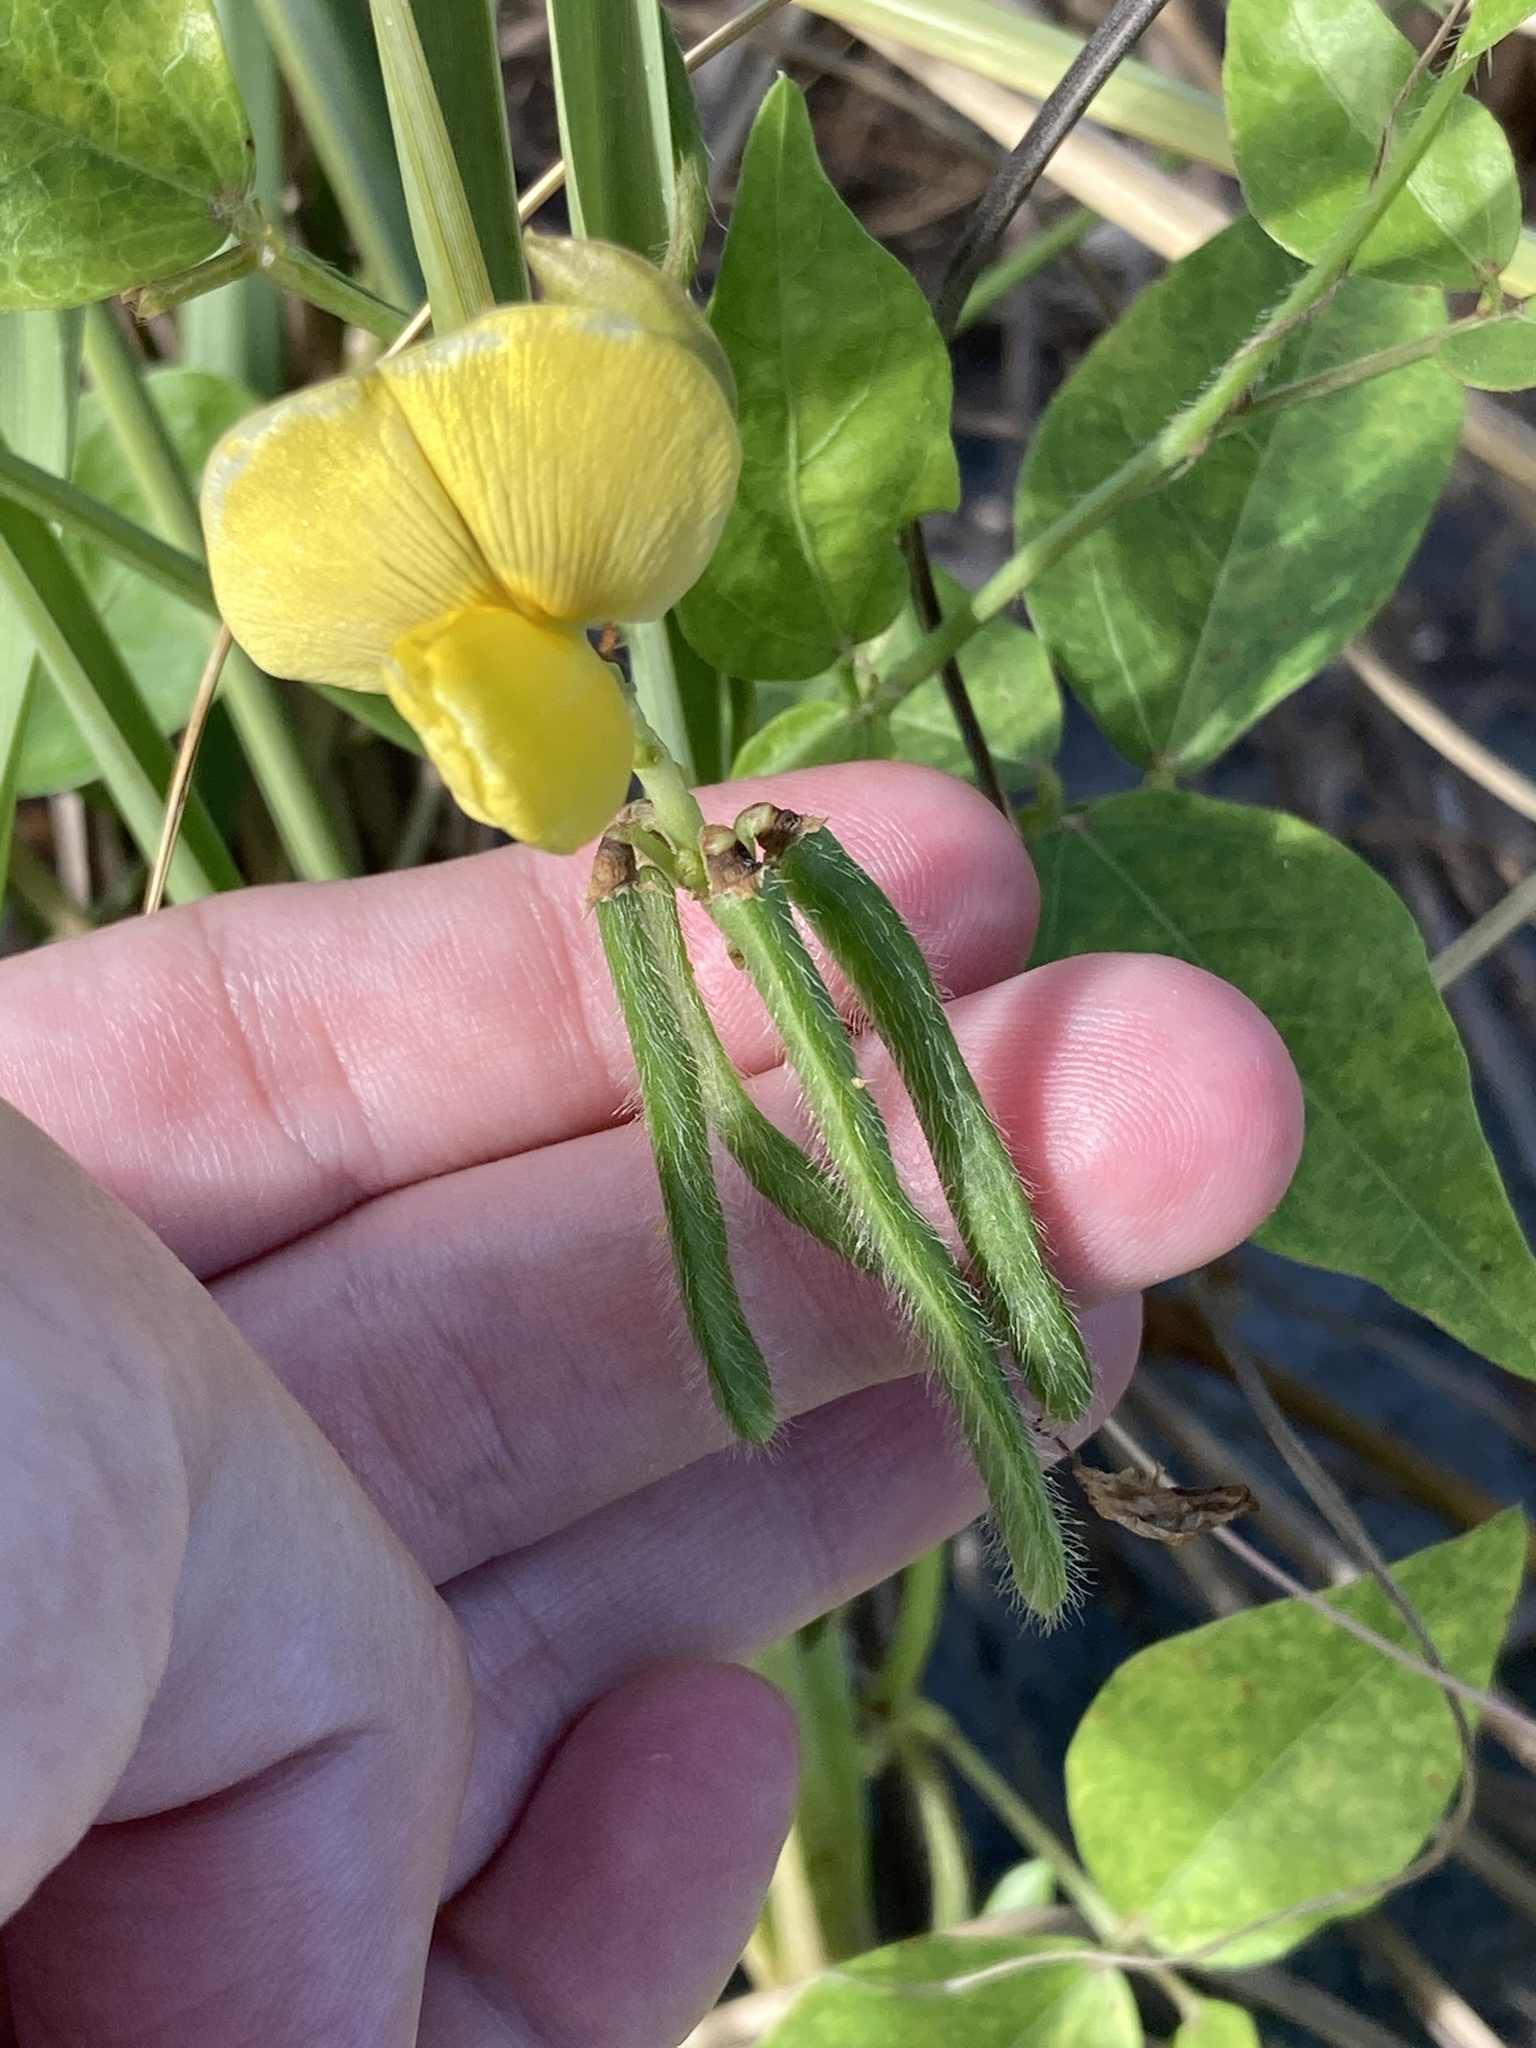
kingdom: Plantae
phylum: Tracheophyta
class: Magnoliopsida
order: Fabales
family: Fabaceae
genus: Vigna
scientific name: Vigna luteola
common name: Hairypod cowpea
